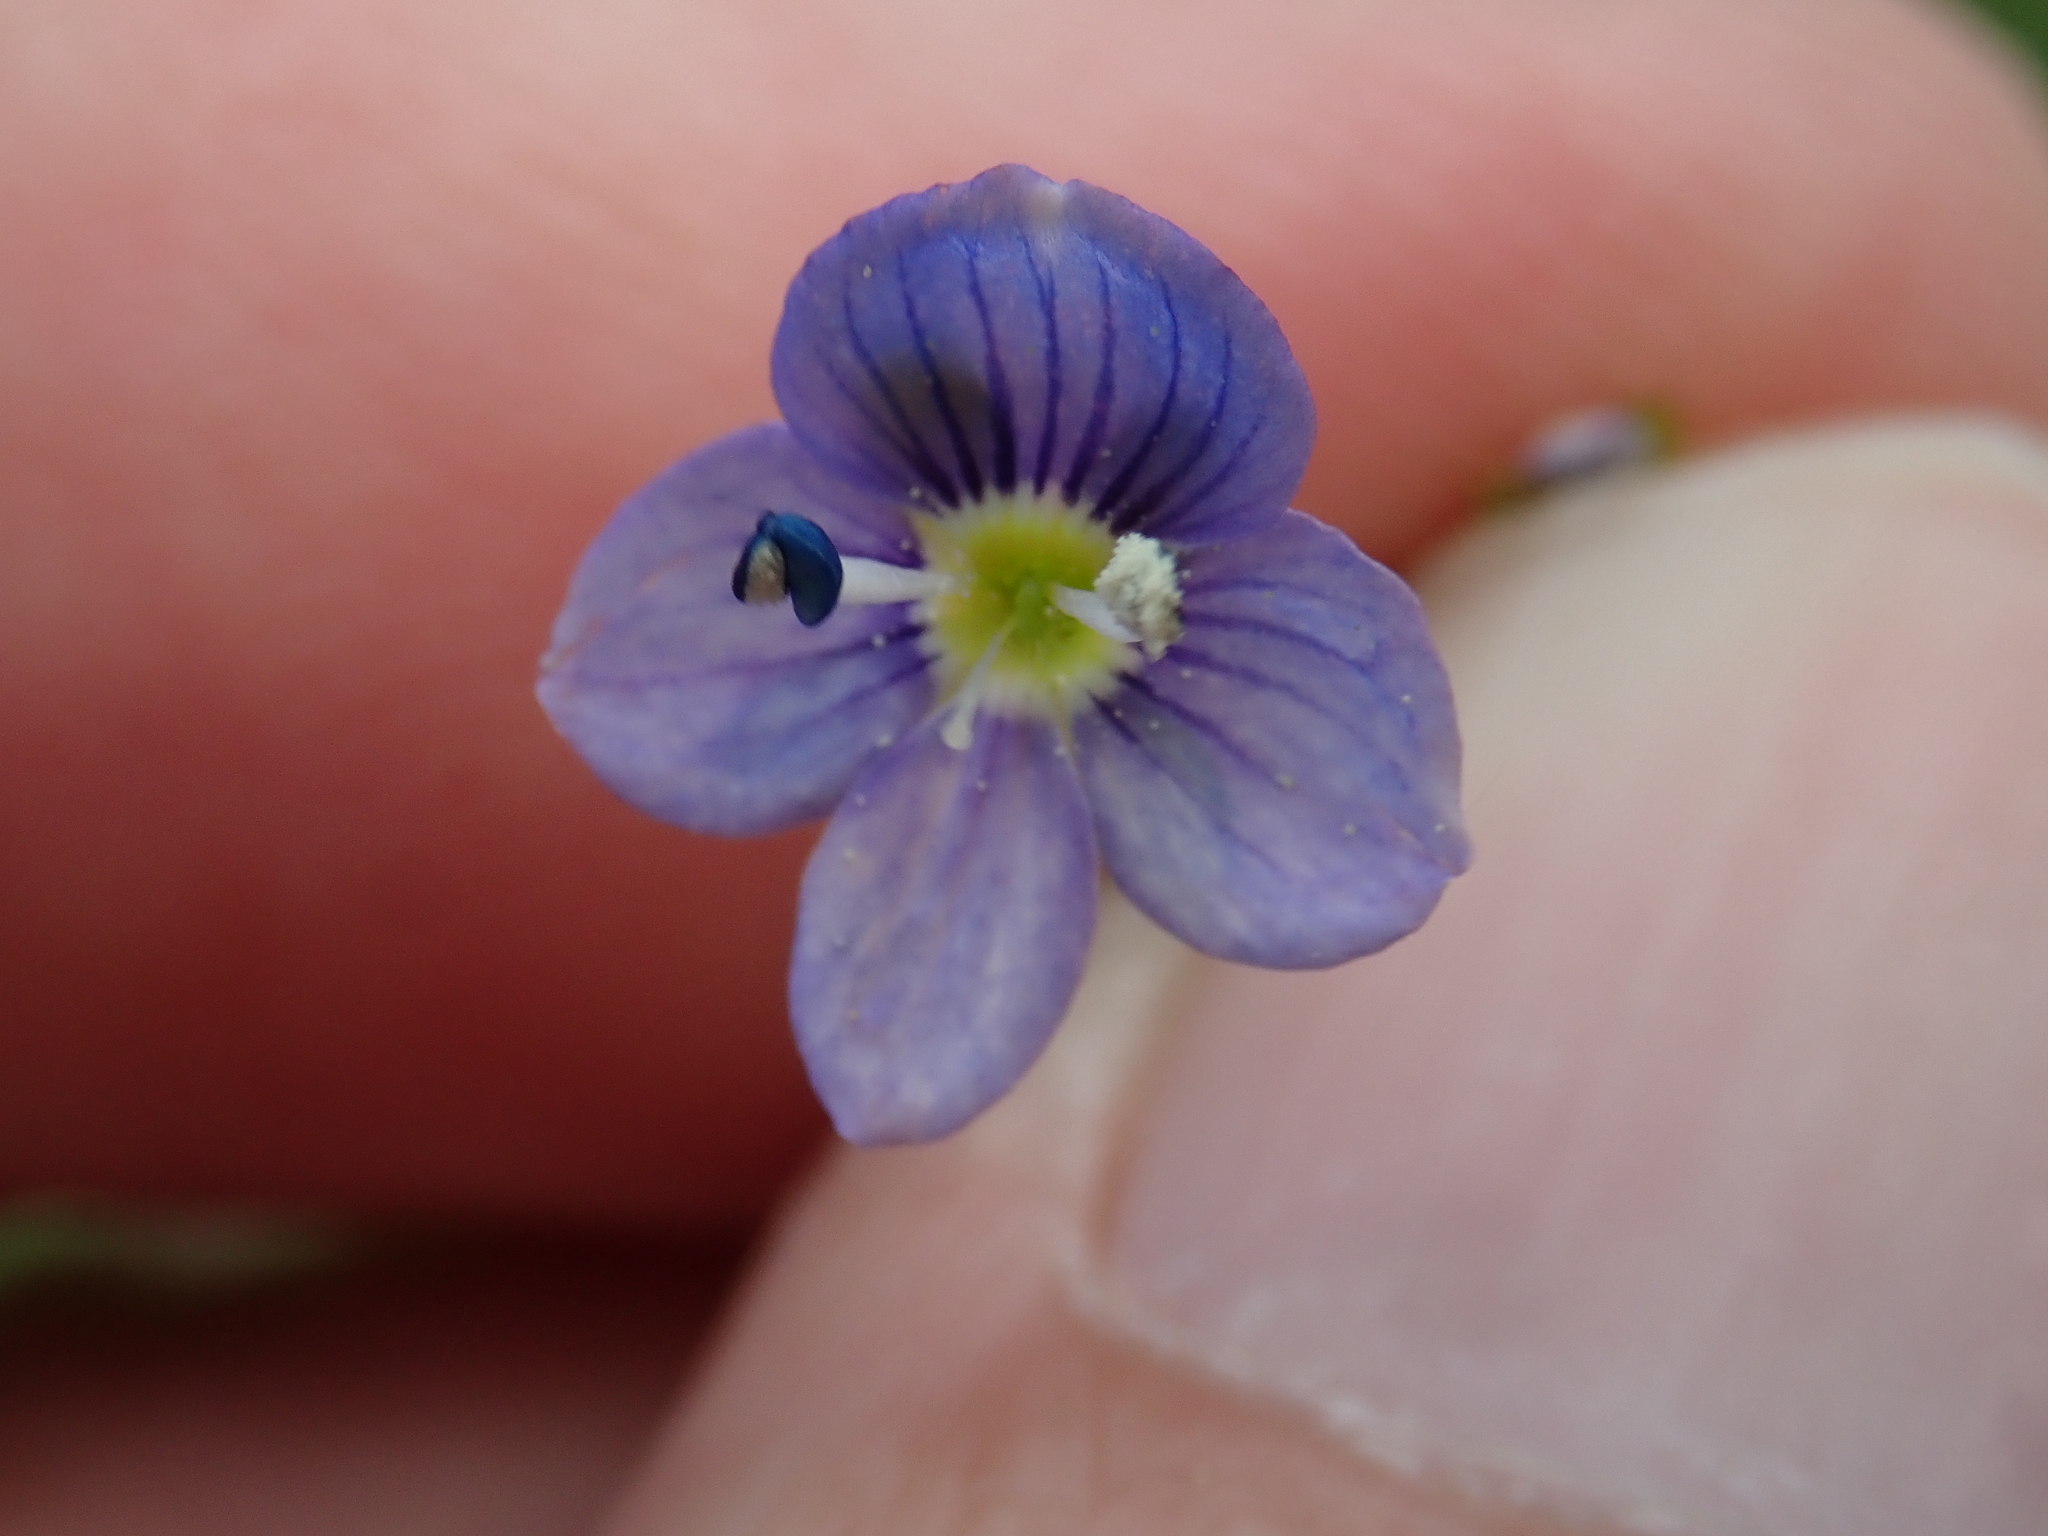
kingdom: Plantae
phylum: Tracheophyta
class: Magnoliopsida
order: Lamiales
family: Plantaginaceae
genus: Veronica
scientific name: Veronica filiformis
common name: Slender speedwell
